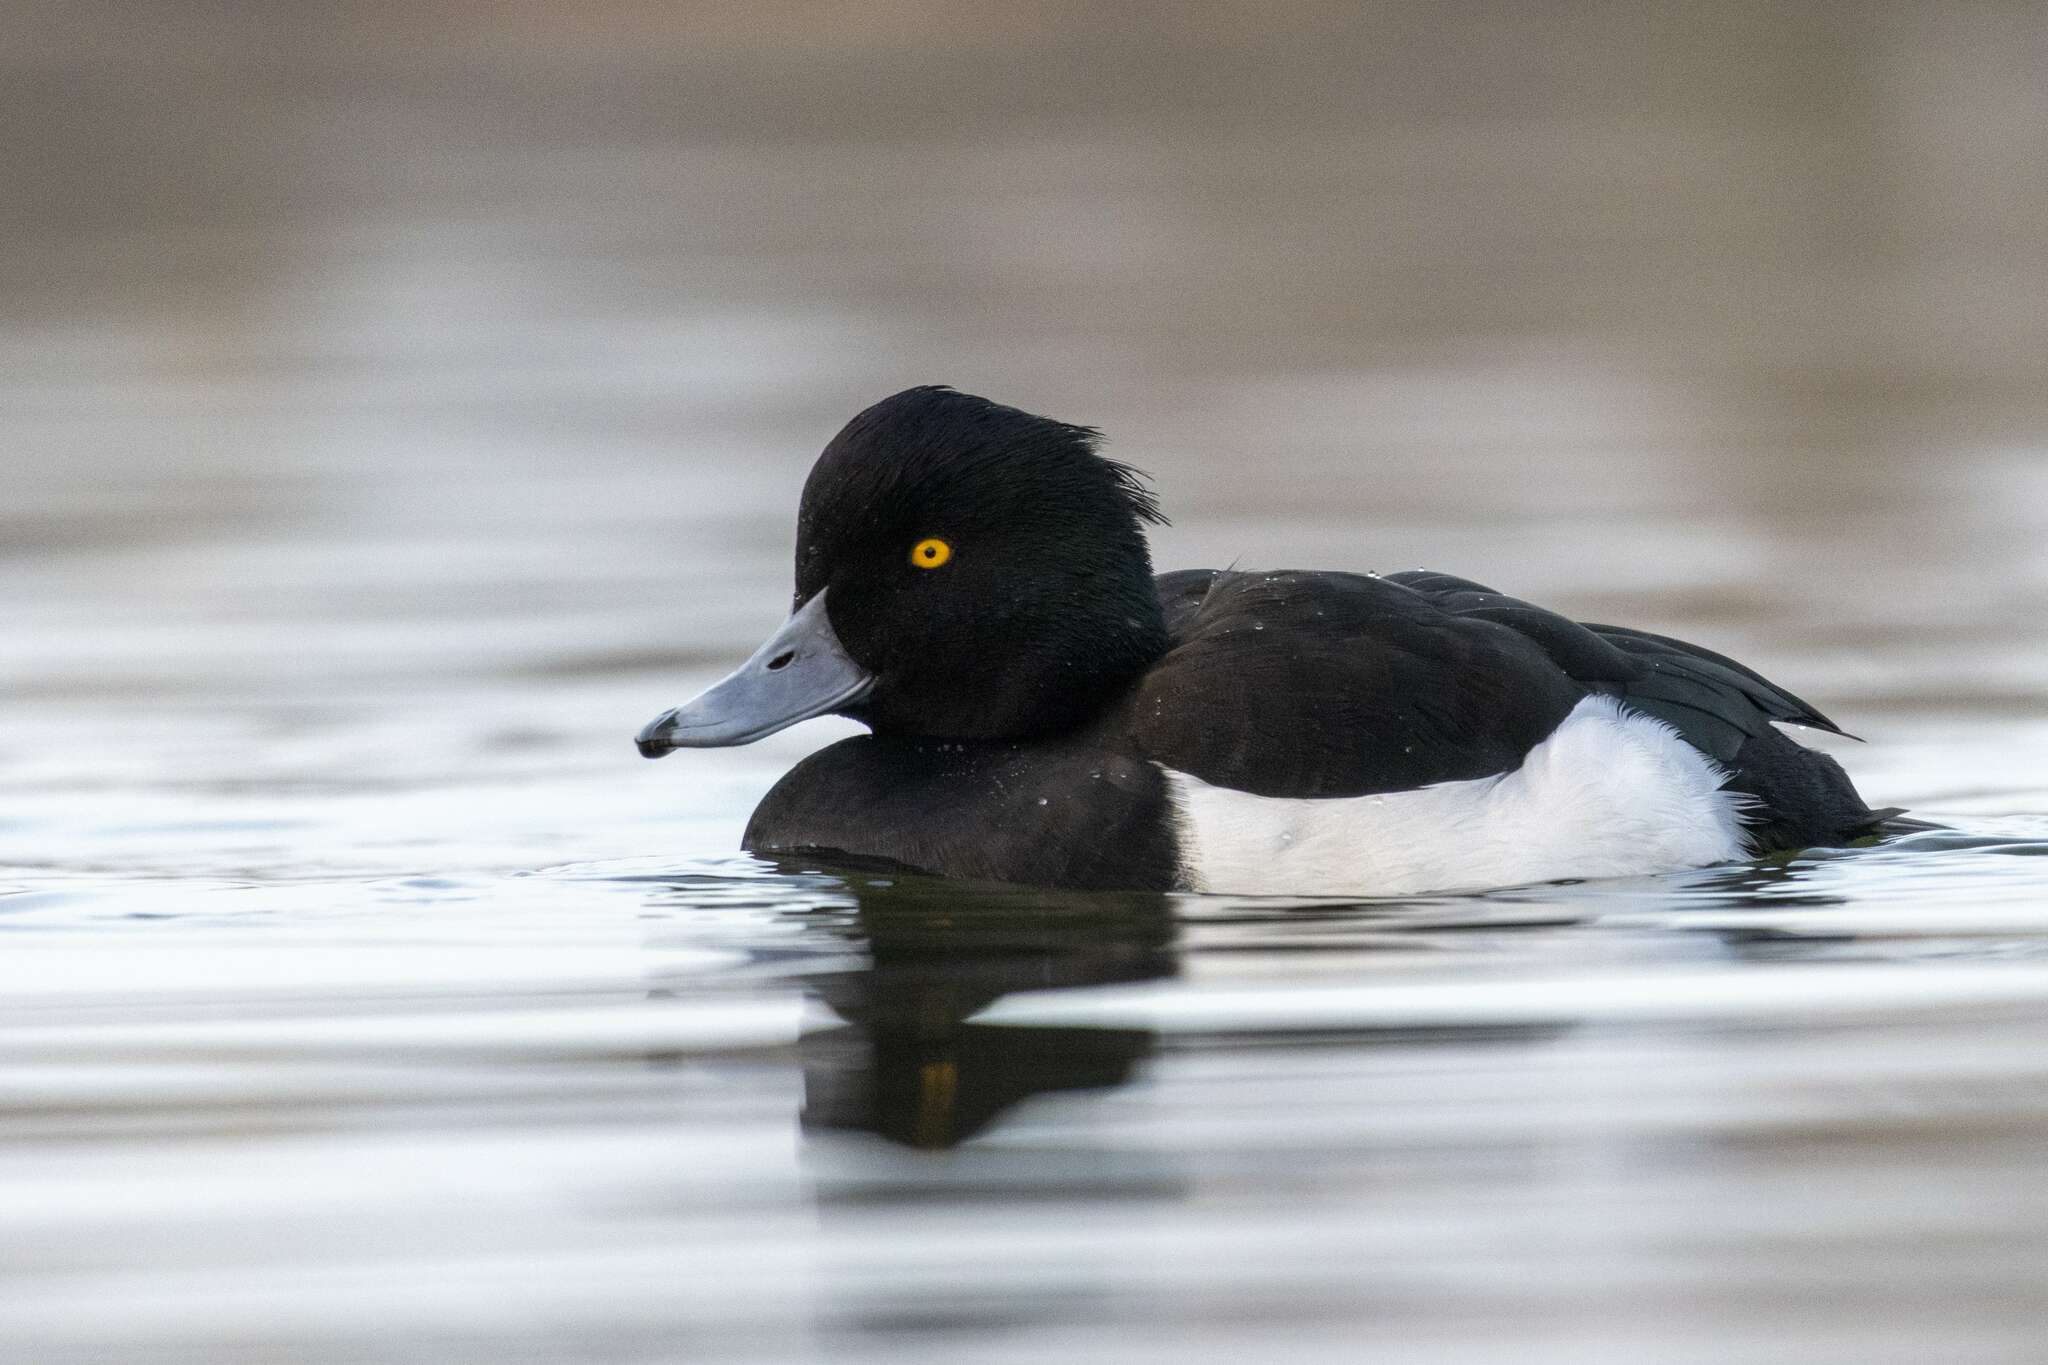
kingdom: Animalia
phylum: Chordata
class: Aves
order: Anseriformes
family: Anatidae
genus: Aythya
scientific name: Aythya fuligula
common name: Tufted duck
